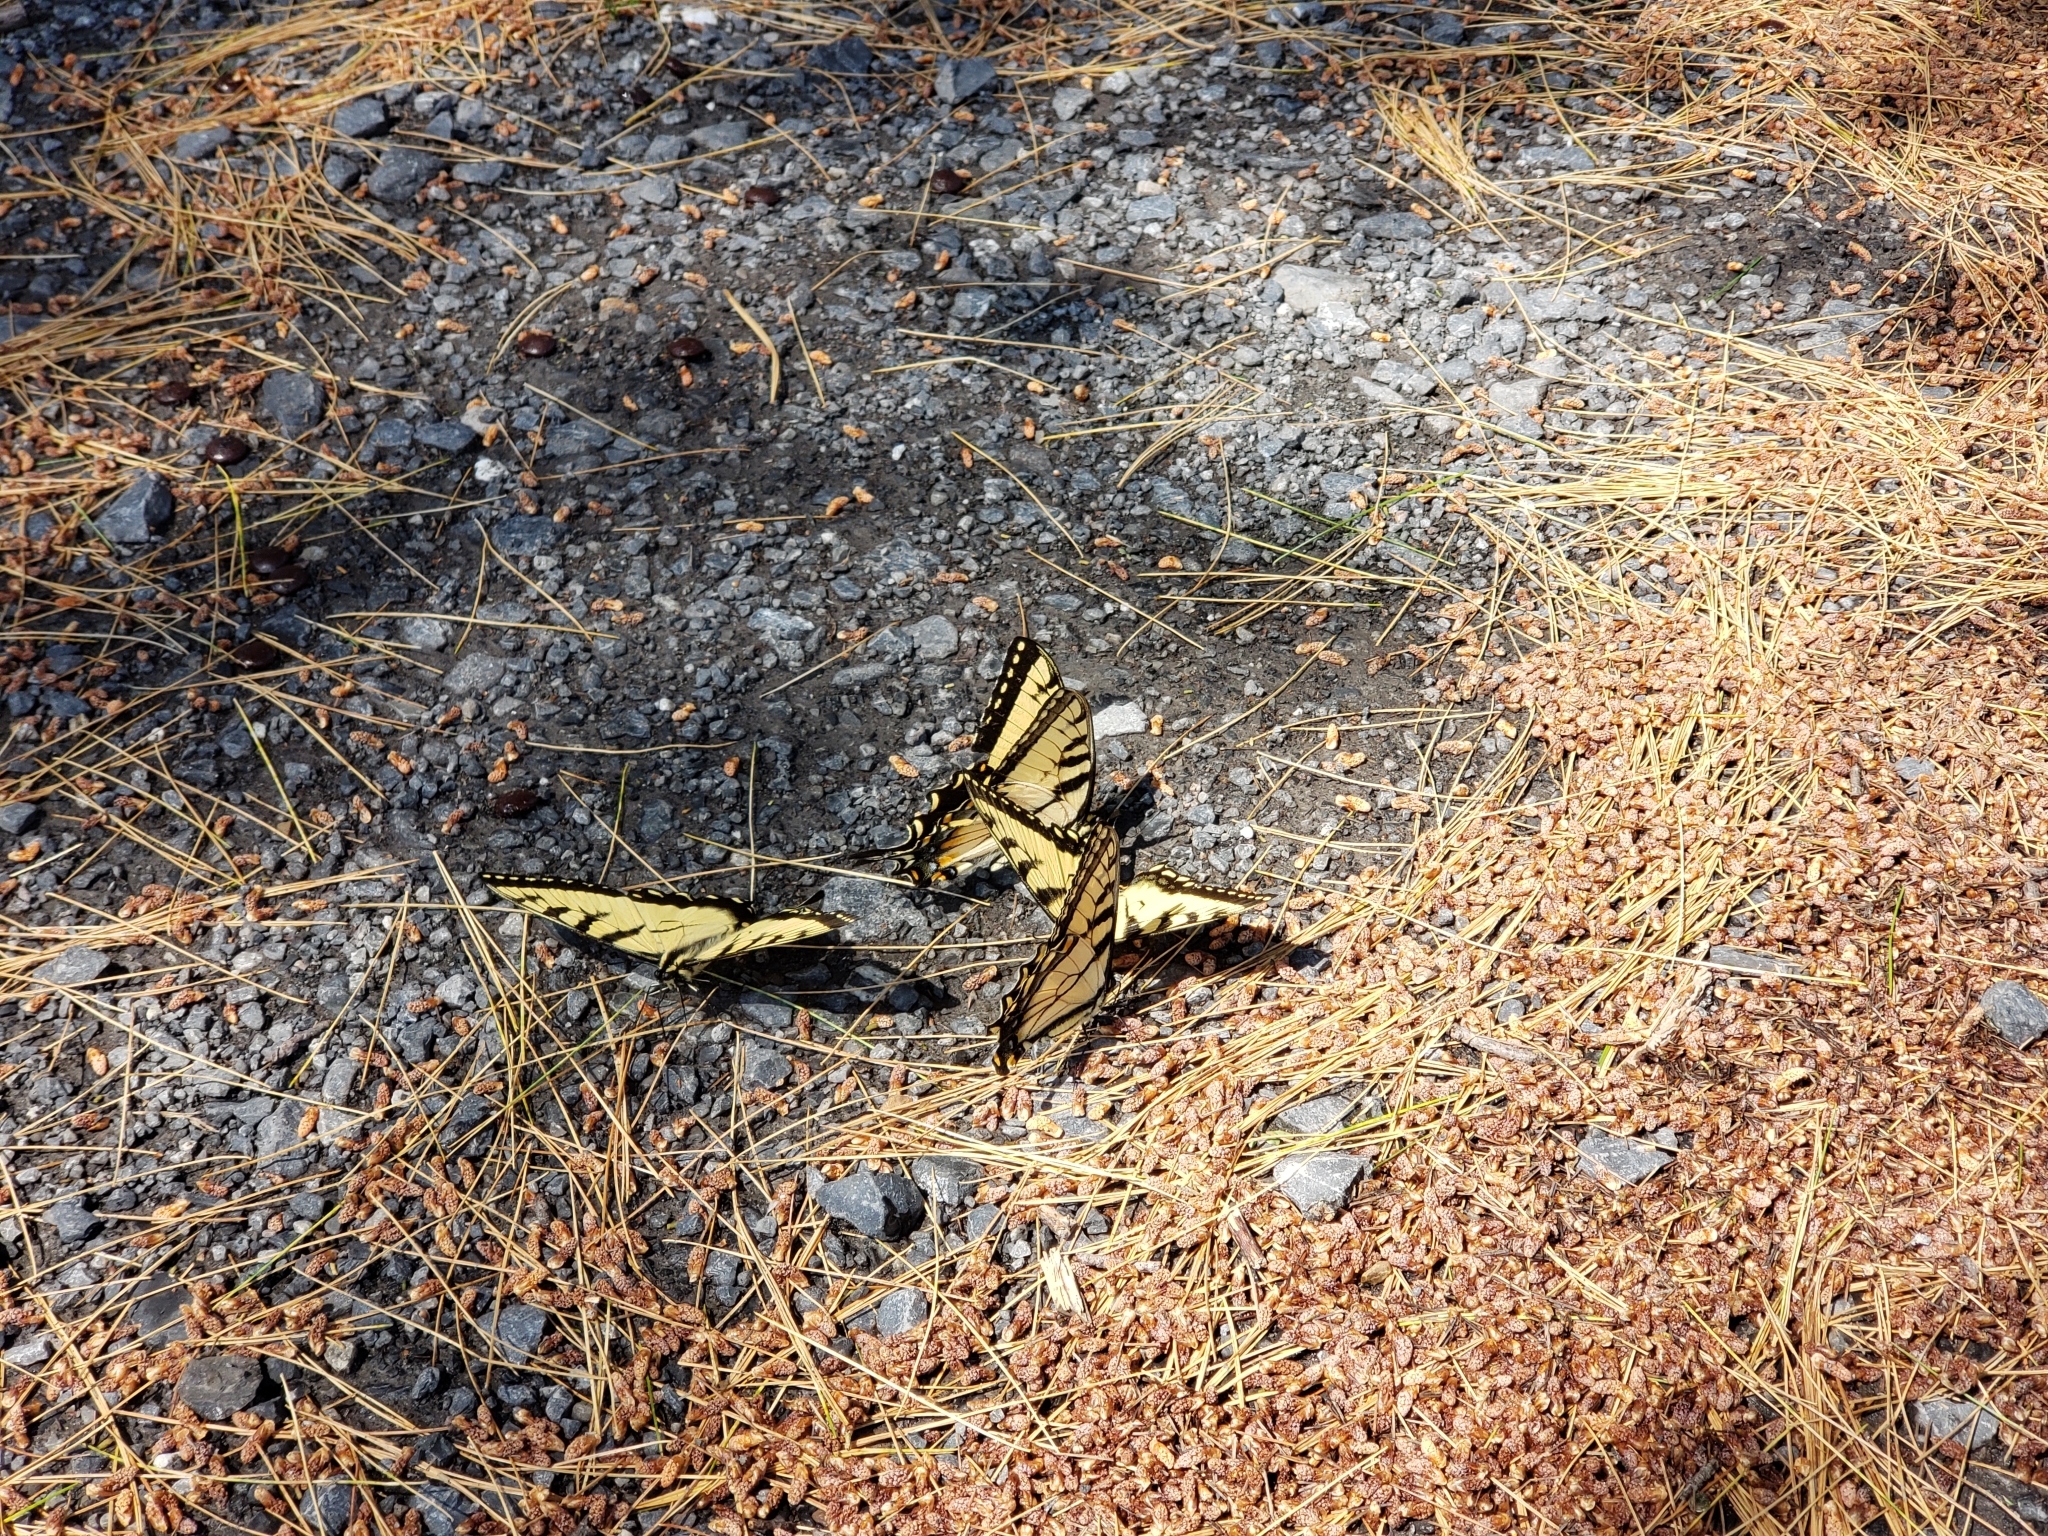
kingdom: Animalia
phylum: Arthropoda
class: Insecta
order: Lepidoptera
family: Papilionidae
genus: Papilio
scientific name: Papilio glaucus
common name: Tiger swallowtail
